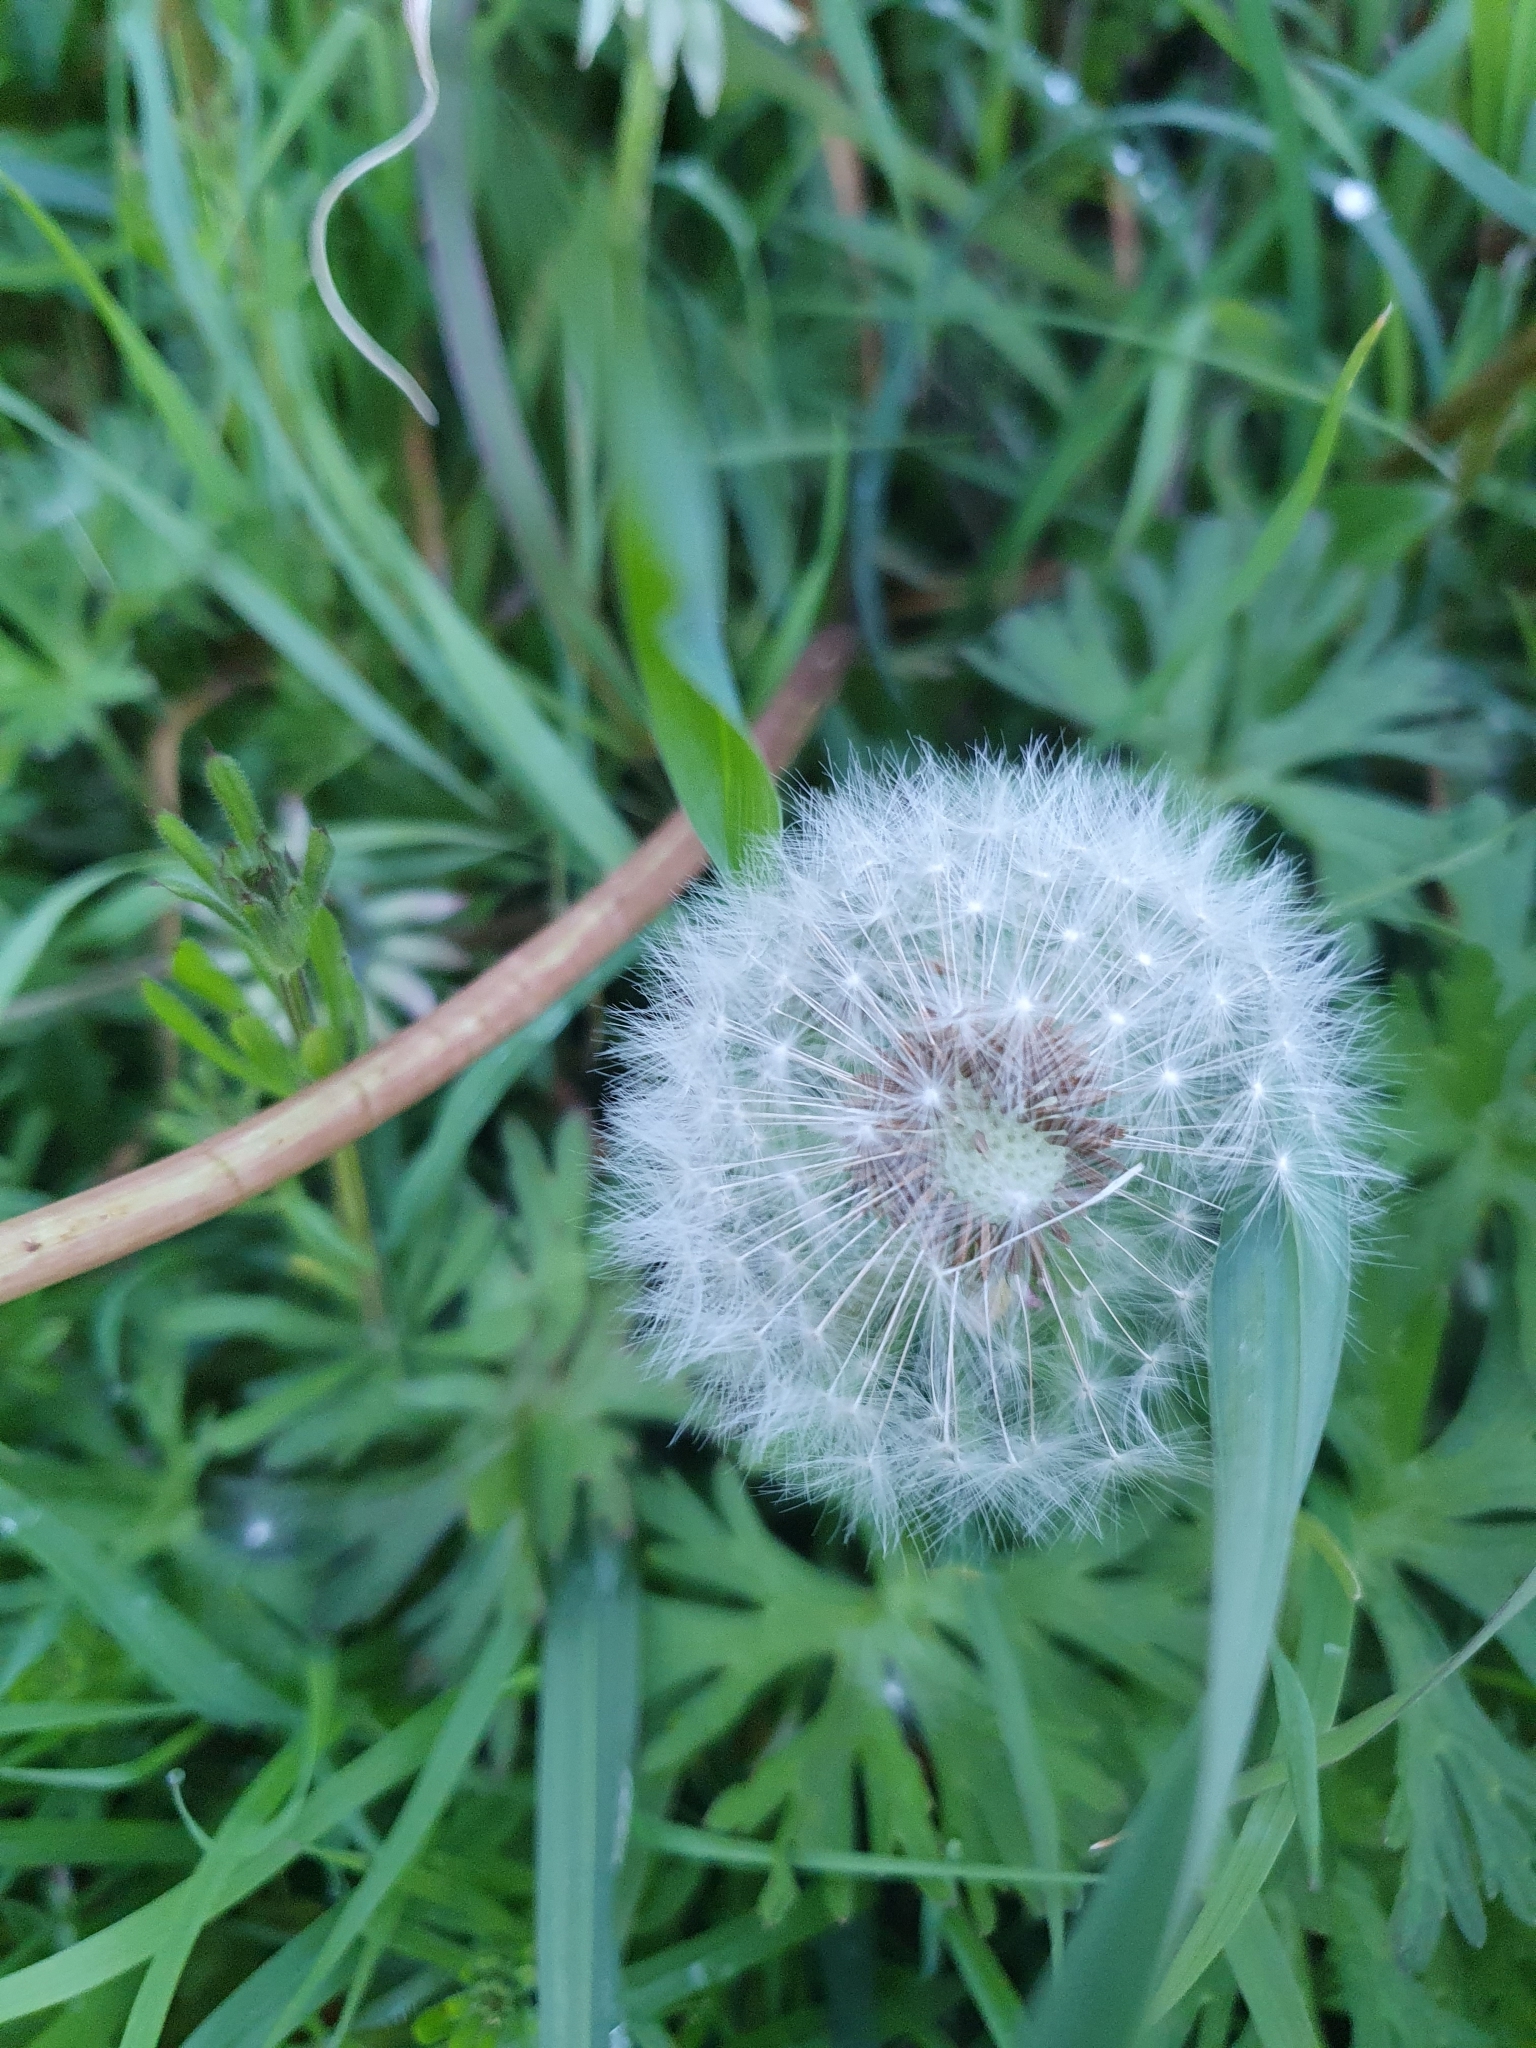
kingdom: Plantae
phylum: Tracheophyta
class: Magnoliopsida
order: Asterales
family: Asteraceae
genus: Taraxacum
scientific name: Taraxacum officinale
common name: Common dandelion
